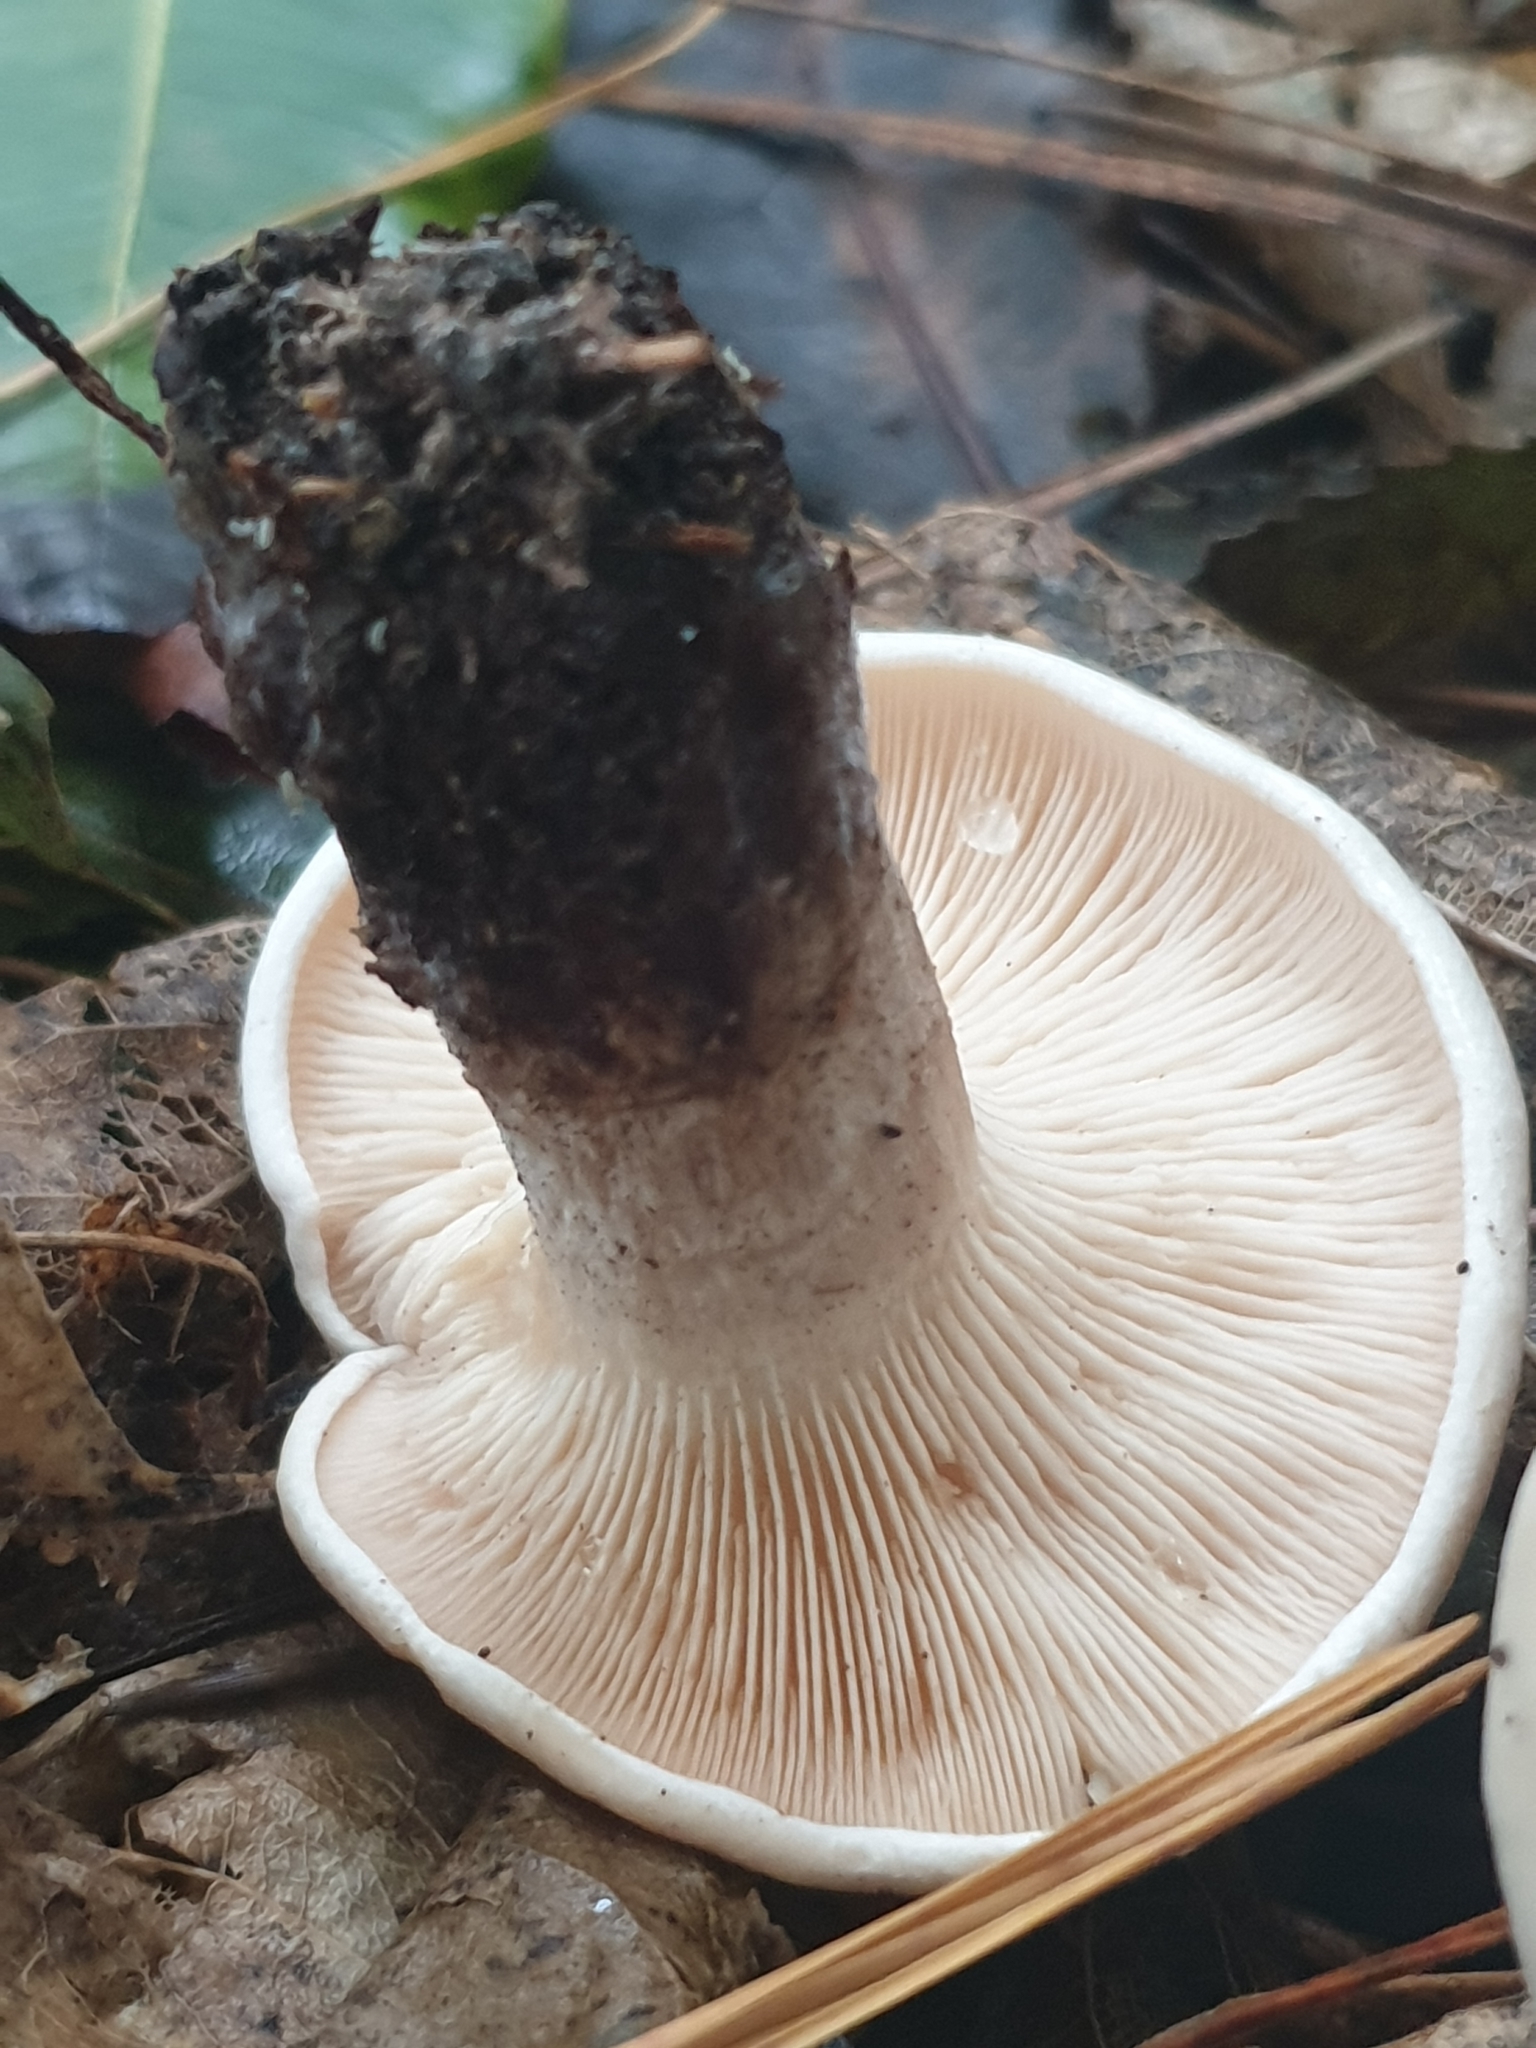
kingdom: Fungi
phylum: Basidiomycota
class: Agaricomycetes
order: Agaricales
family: Tricholomataceae
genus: Clitocybe
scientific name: Clitocybe nebularis
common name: Clouded agaric
